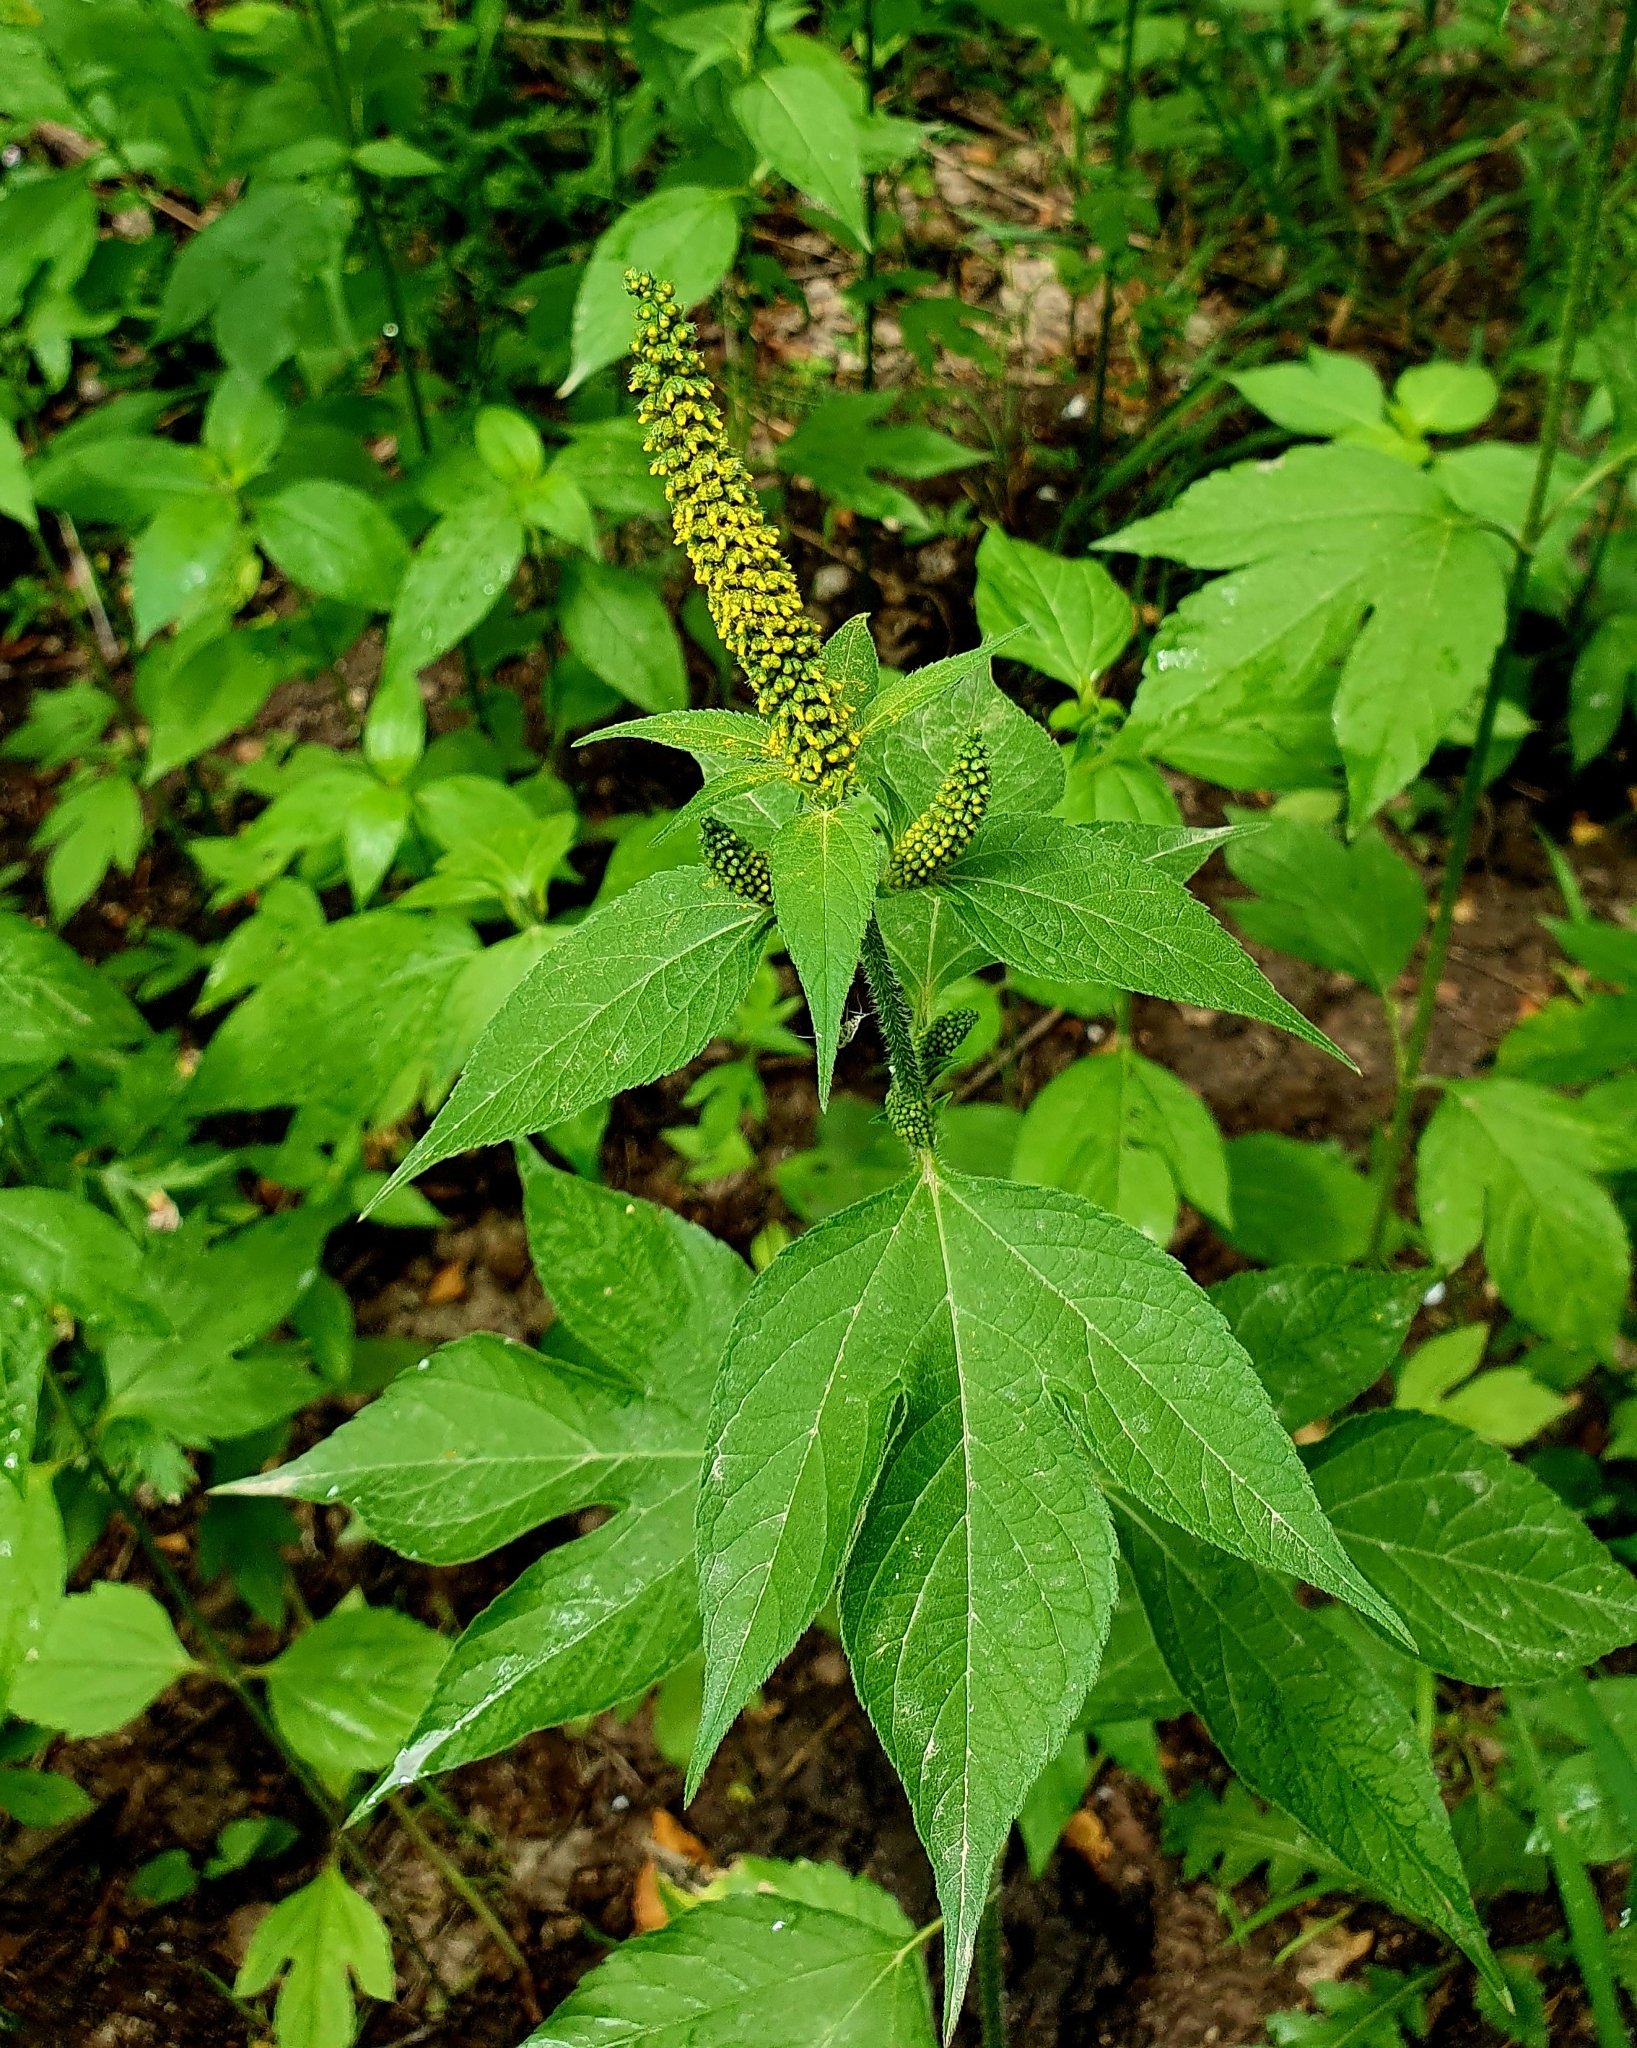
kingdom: Plantae
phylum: Tracheophyta
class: Magnoliopsida
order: Asterales
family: Asteraceae
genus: Ambrosia
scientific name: Ambrosia trifida
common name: Giant ragweed
